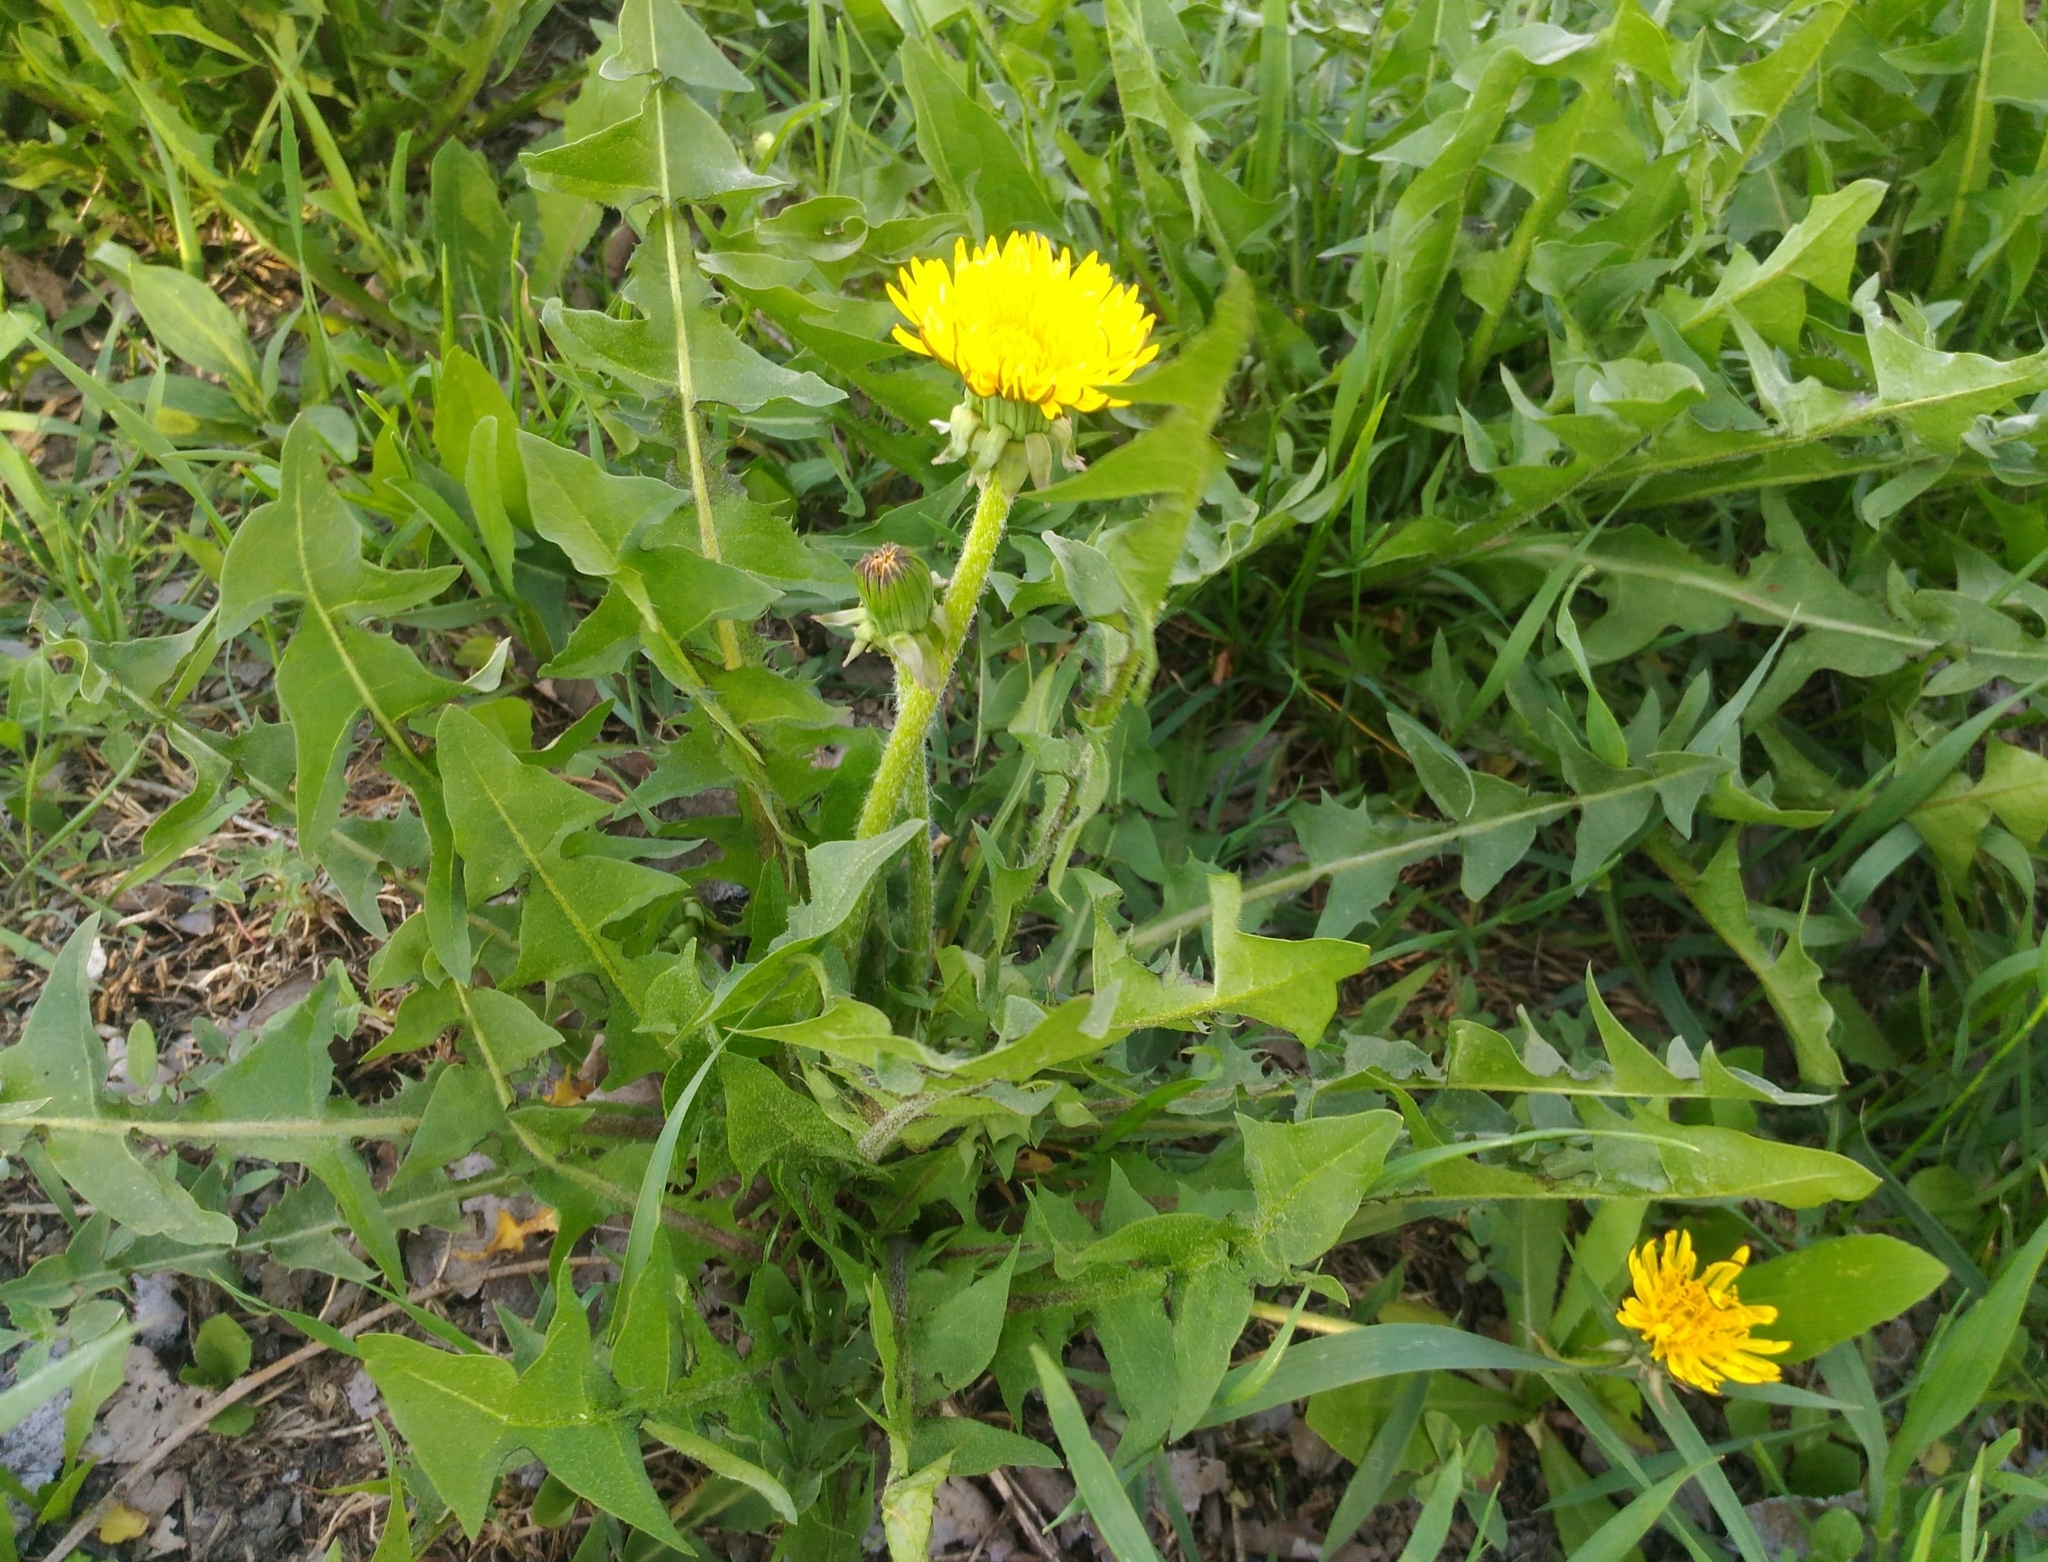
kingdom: Plantae
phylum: Tracheophyta
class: Magnoliopsida
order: Asterales
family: Asteraceae
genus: Taraxacum
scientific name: Taraxacum officinale
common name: Common dandelion
